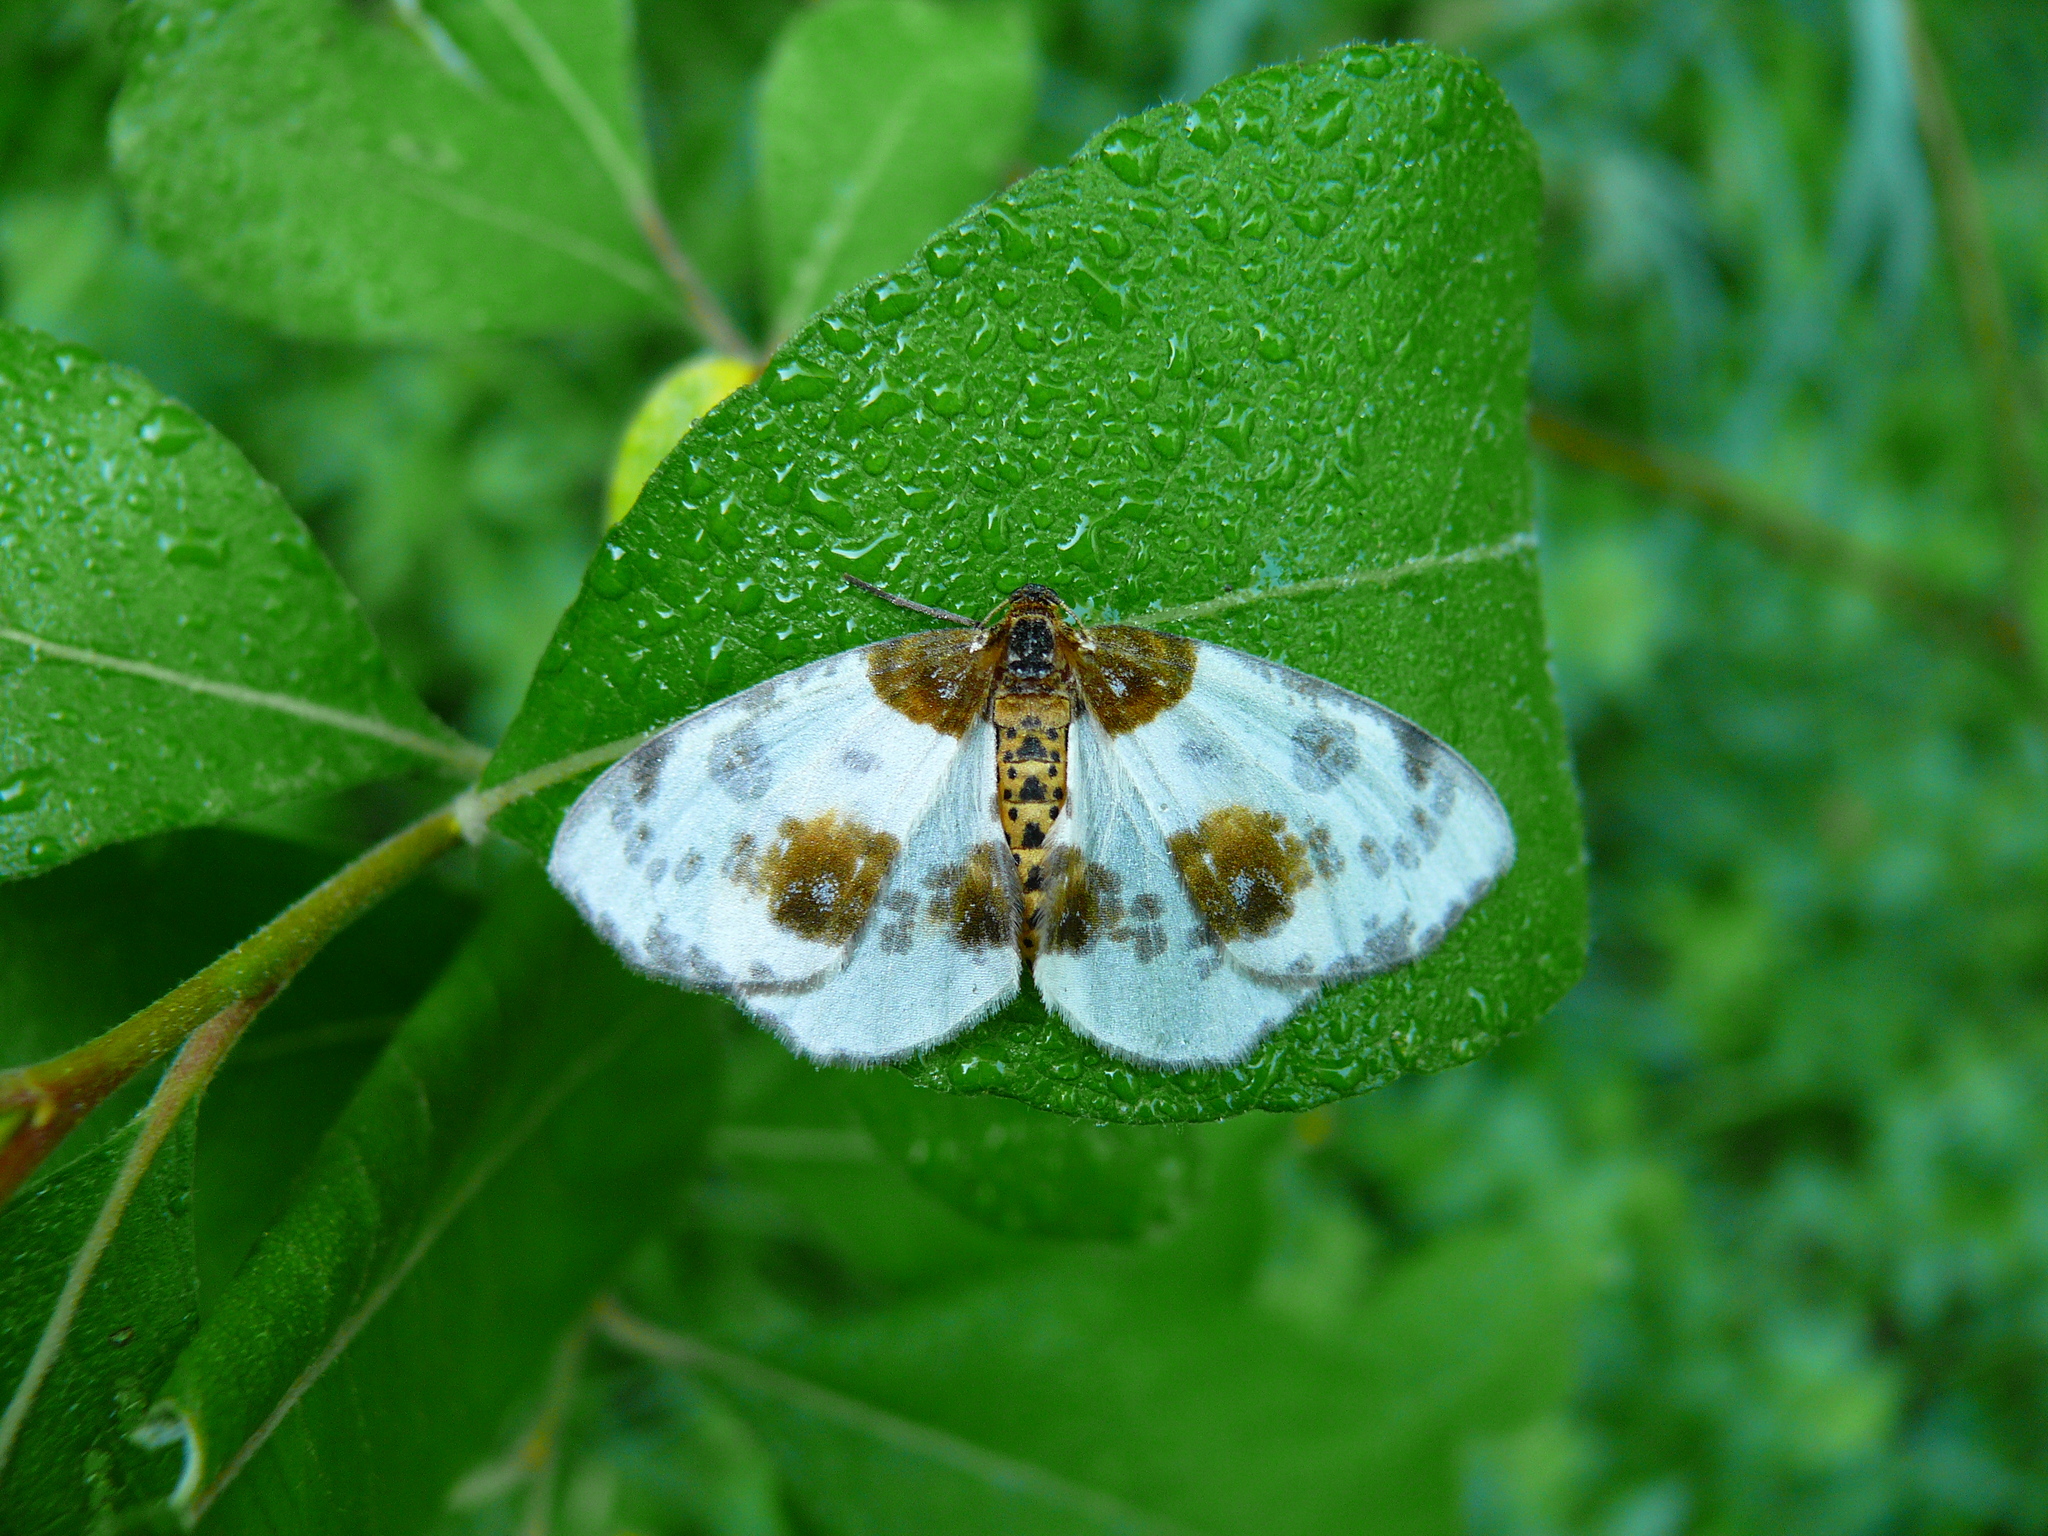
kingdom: Animalia
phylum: Arthropoda
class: Insecta
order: Lepidoptera
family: Geometridae
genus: Abraxas
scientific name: Abraxas sylvata
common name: Clouded magpie
